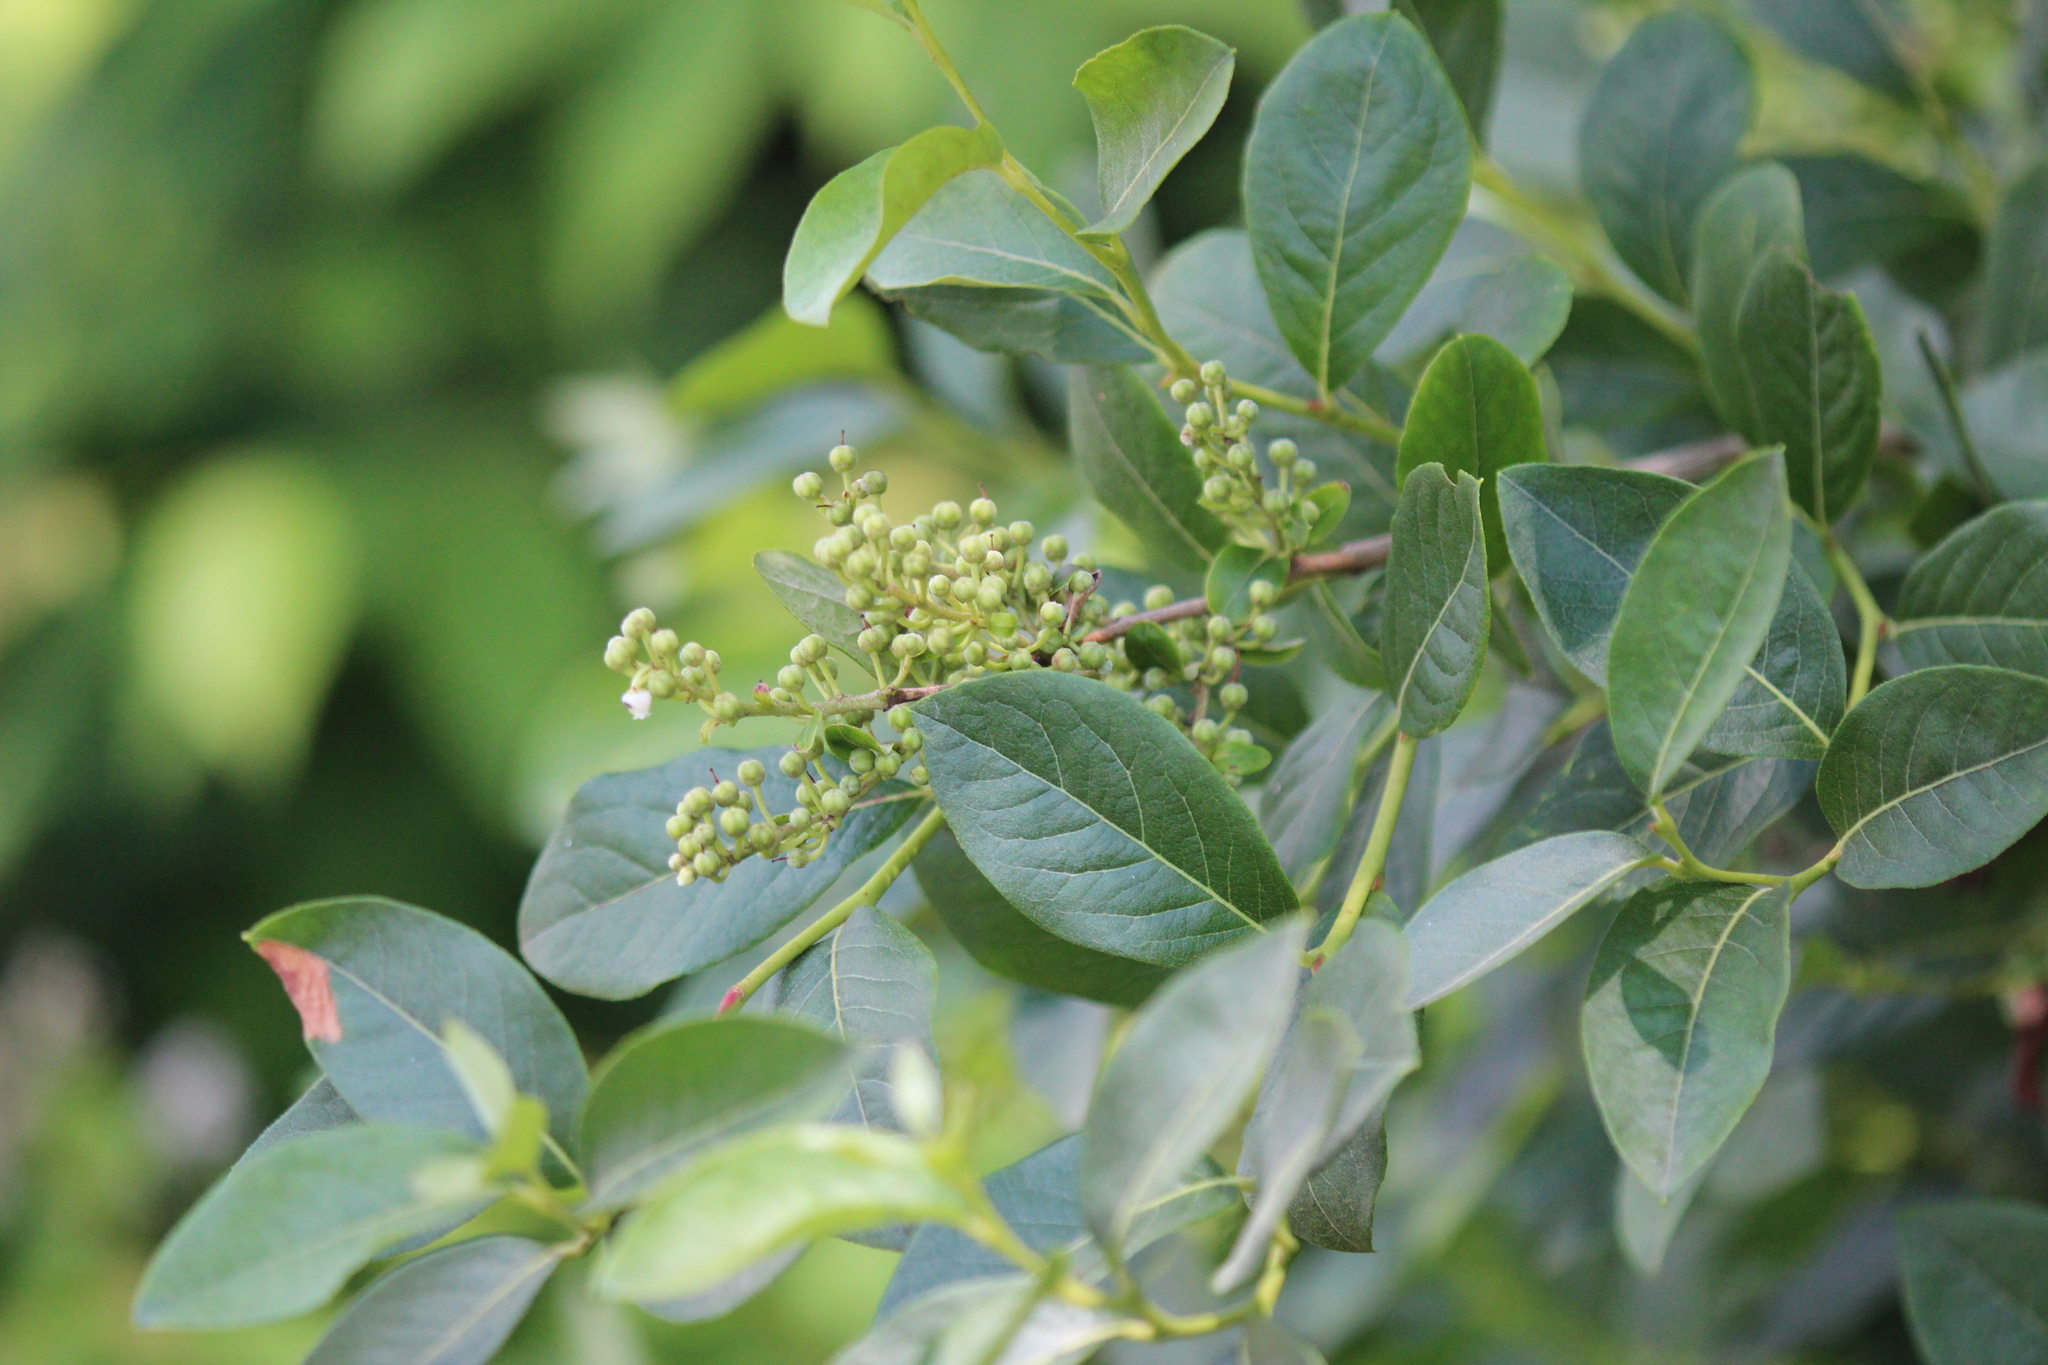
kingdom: Plantae
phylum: Tracheophyta
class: Magnoliopsida
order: Ericales
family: Ericaceae
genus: Lyonia
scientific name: Lyonia ligustrina
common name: Maleberry
